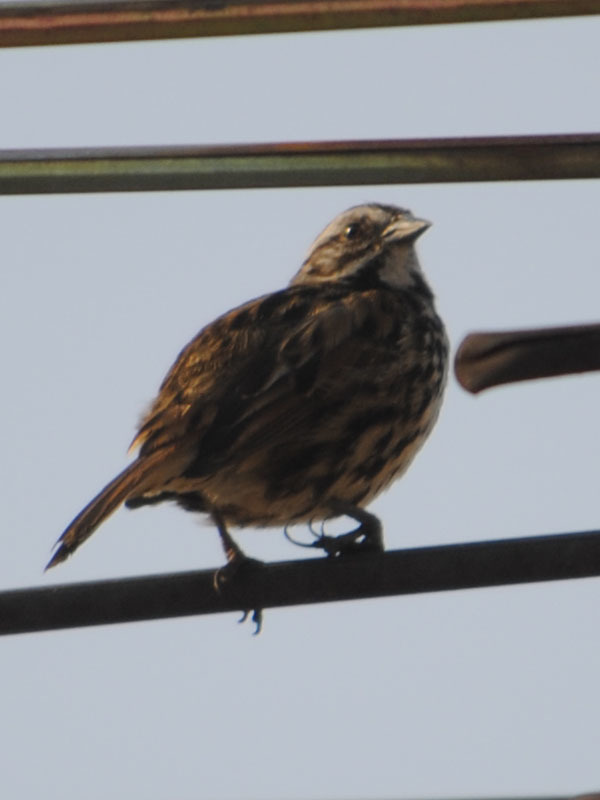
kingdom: Animalia
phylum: Chordata
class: Aves
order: Passeriformes
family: Passerellidae
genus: Melospiza
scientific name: Melospiza melodia
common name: Song sparrow
